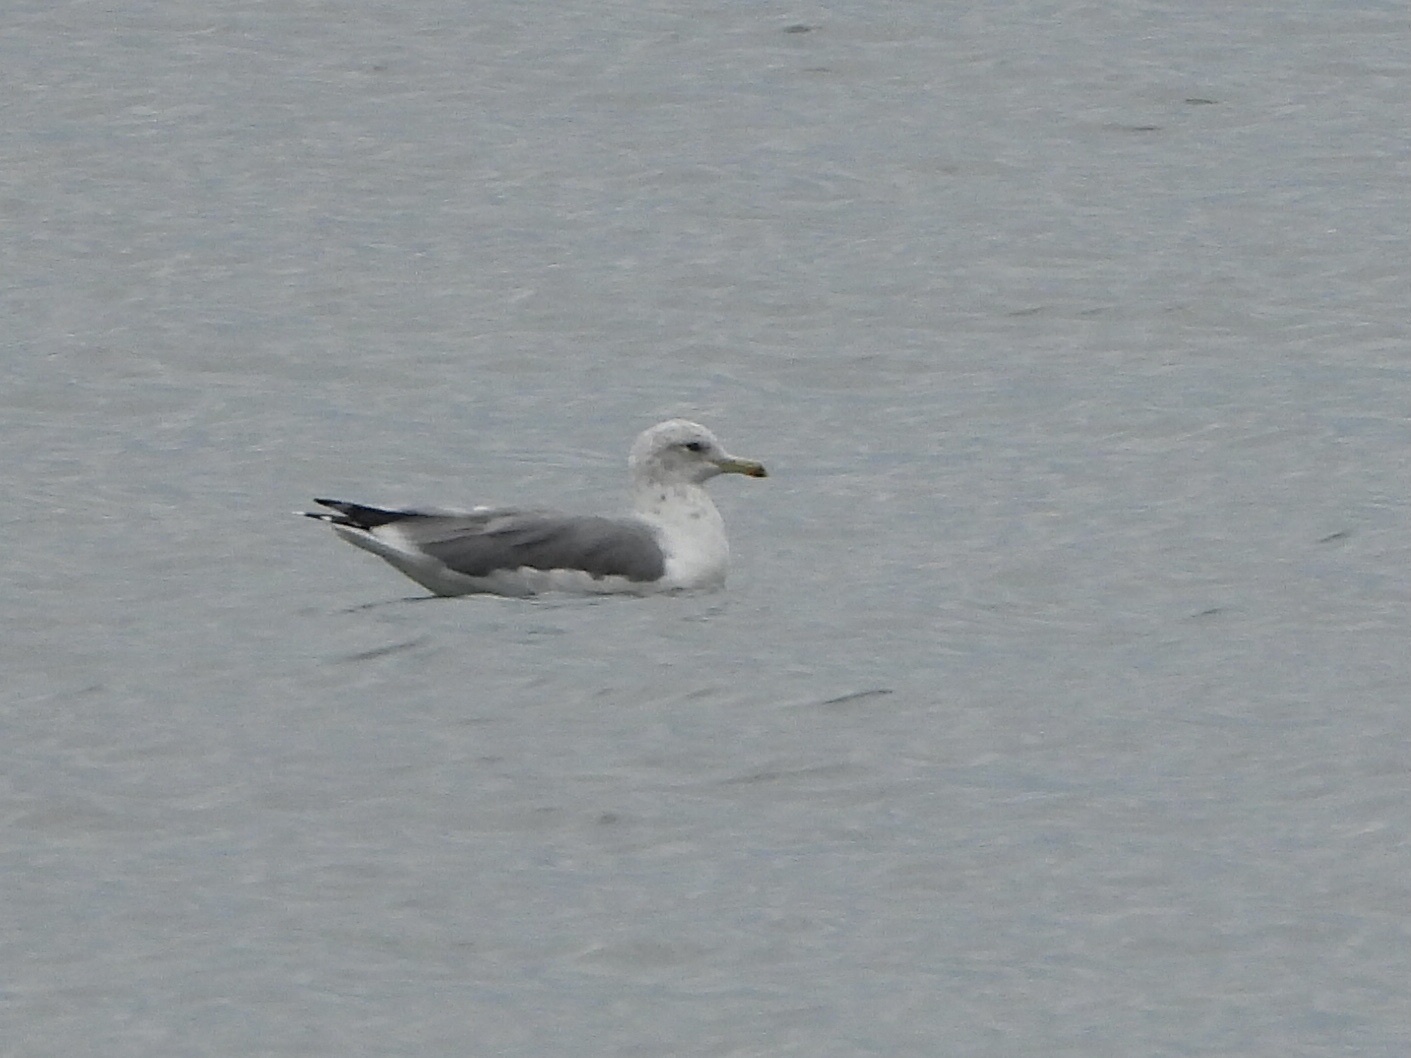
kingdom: Animalia
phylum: Chordata
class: Aves
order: Charadriiformes
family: Laridae
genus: Larus
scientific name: Larus californicus
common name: California gull
